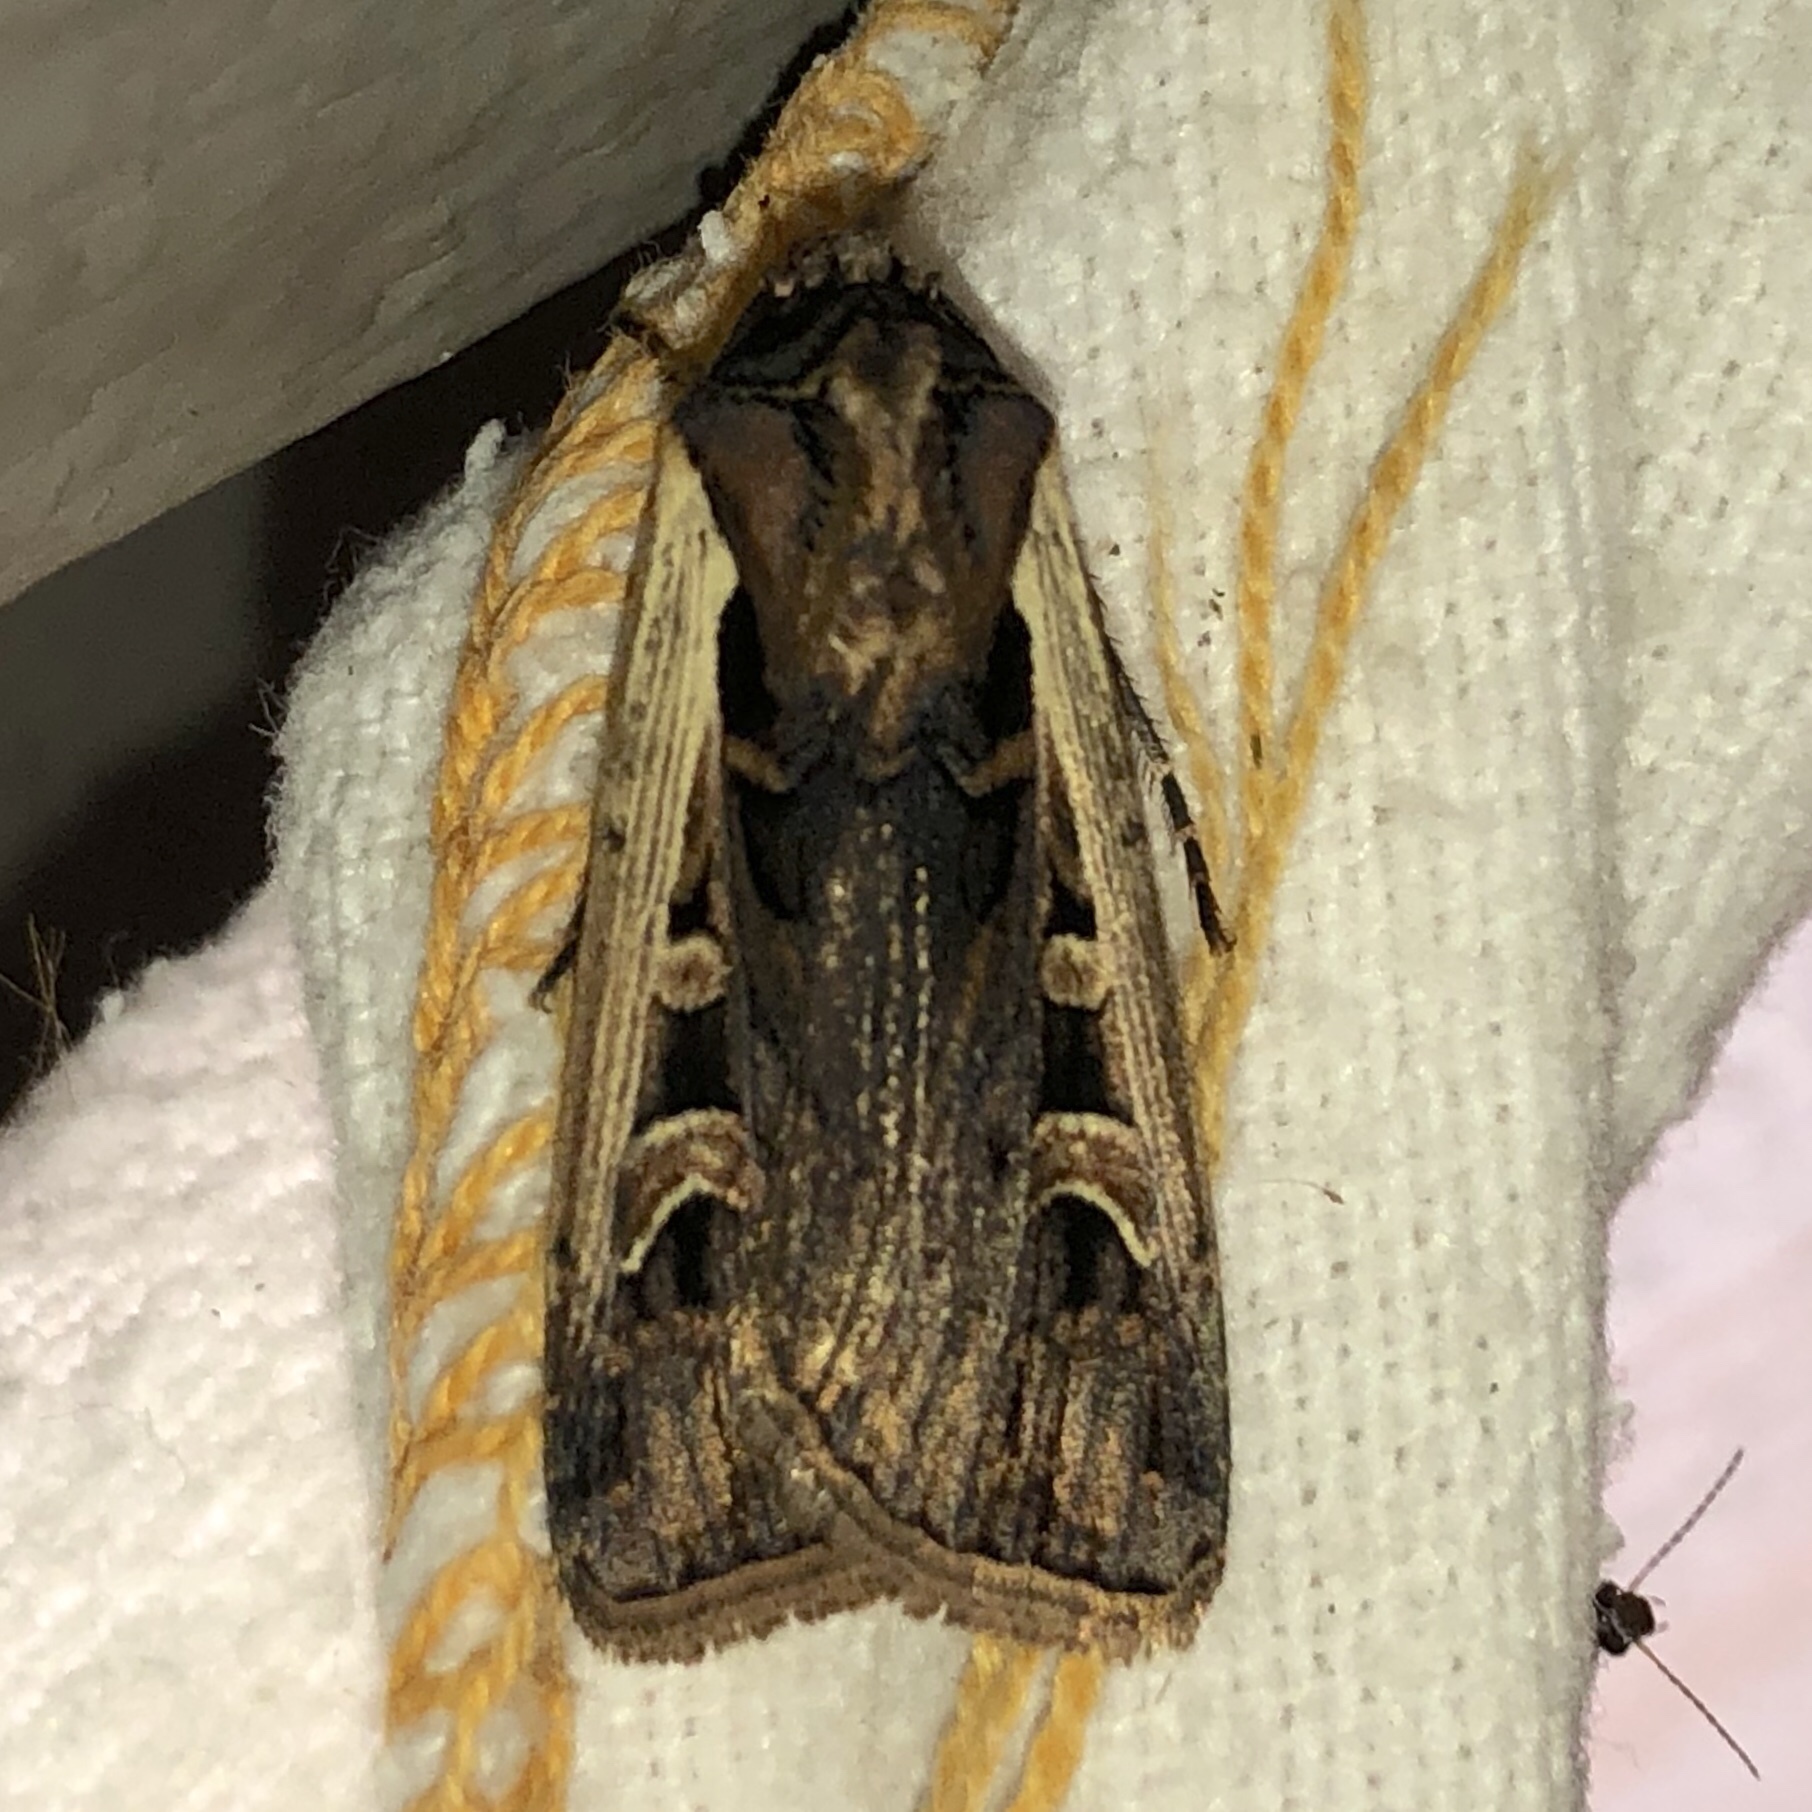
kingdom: Animalia
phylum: Arthropoda
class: Insecta
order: Lepidoptera
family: Noctuidae
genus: Striacosta
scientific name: Striacosta albicosta
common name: Western bean cutworm moth
